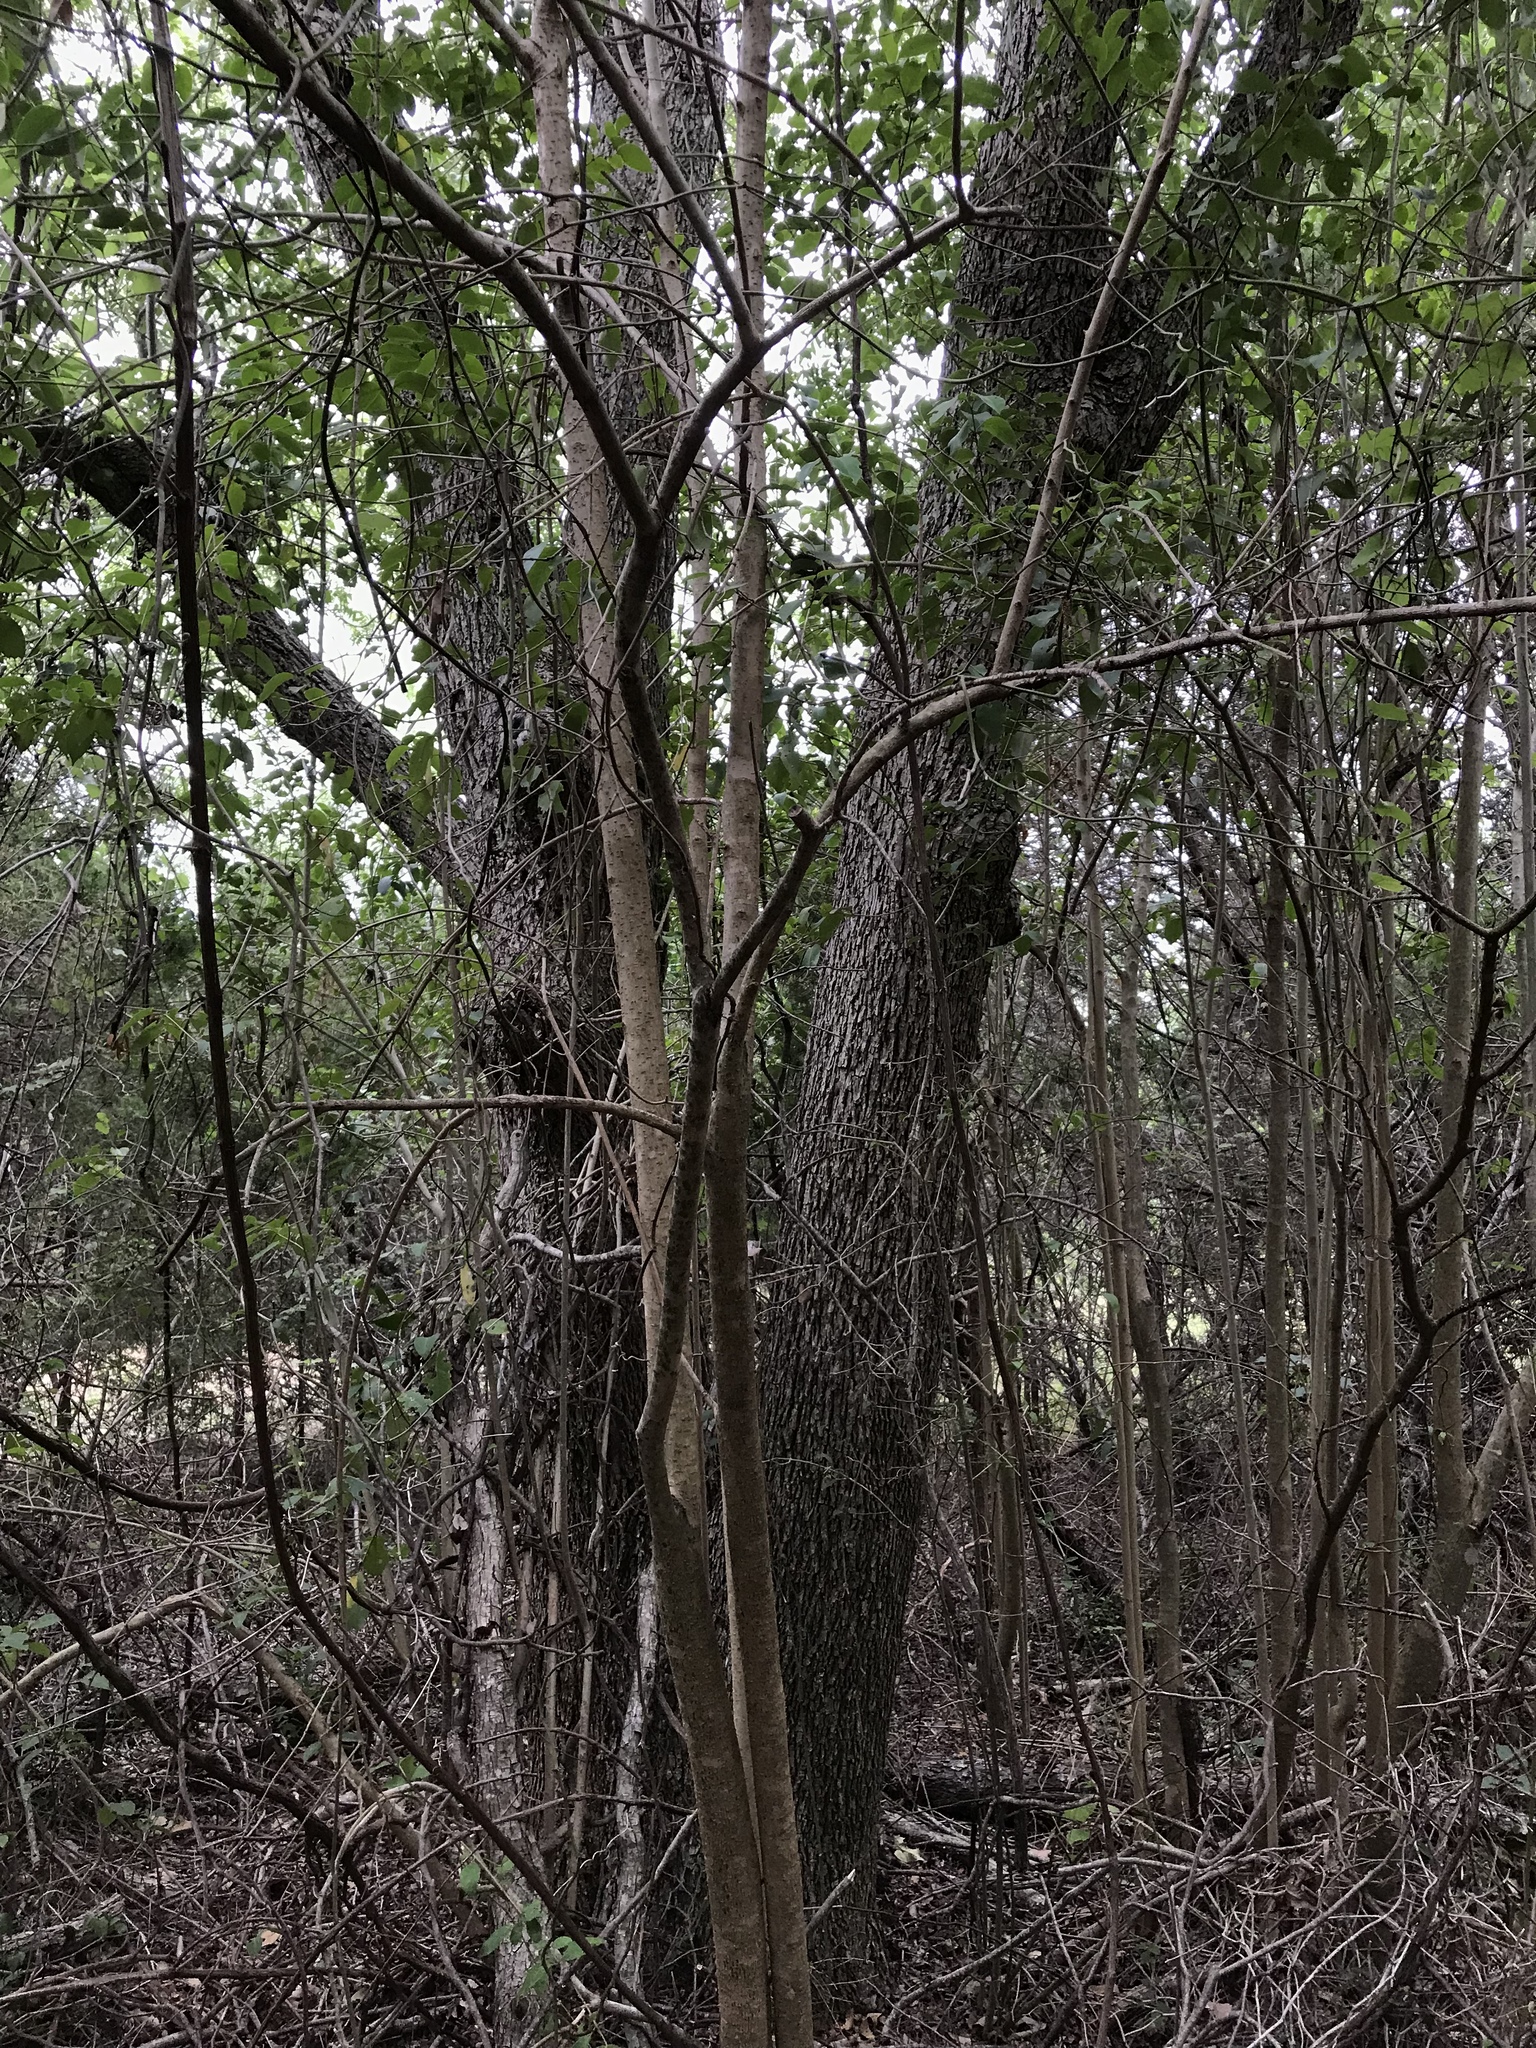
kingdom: Plantae
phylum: Tracheophyta
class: Magnoliopsida
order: Lamiales
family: Oleaceae
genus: Ligustrum
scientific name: Ligustrum lucidum
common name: Glossy privet
